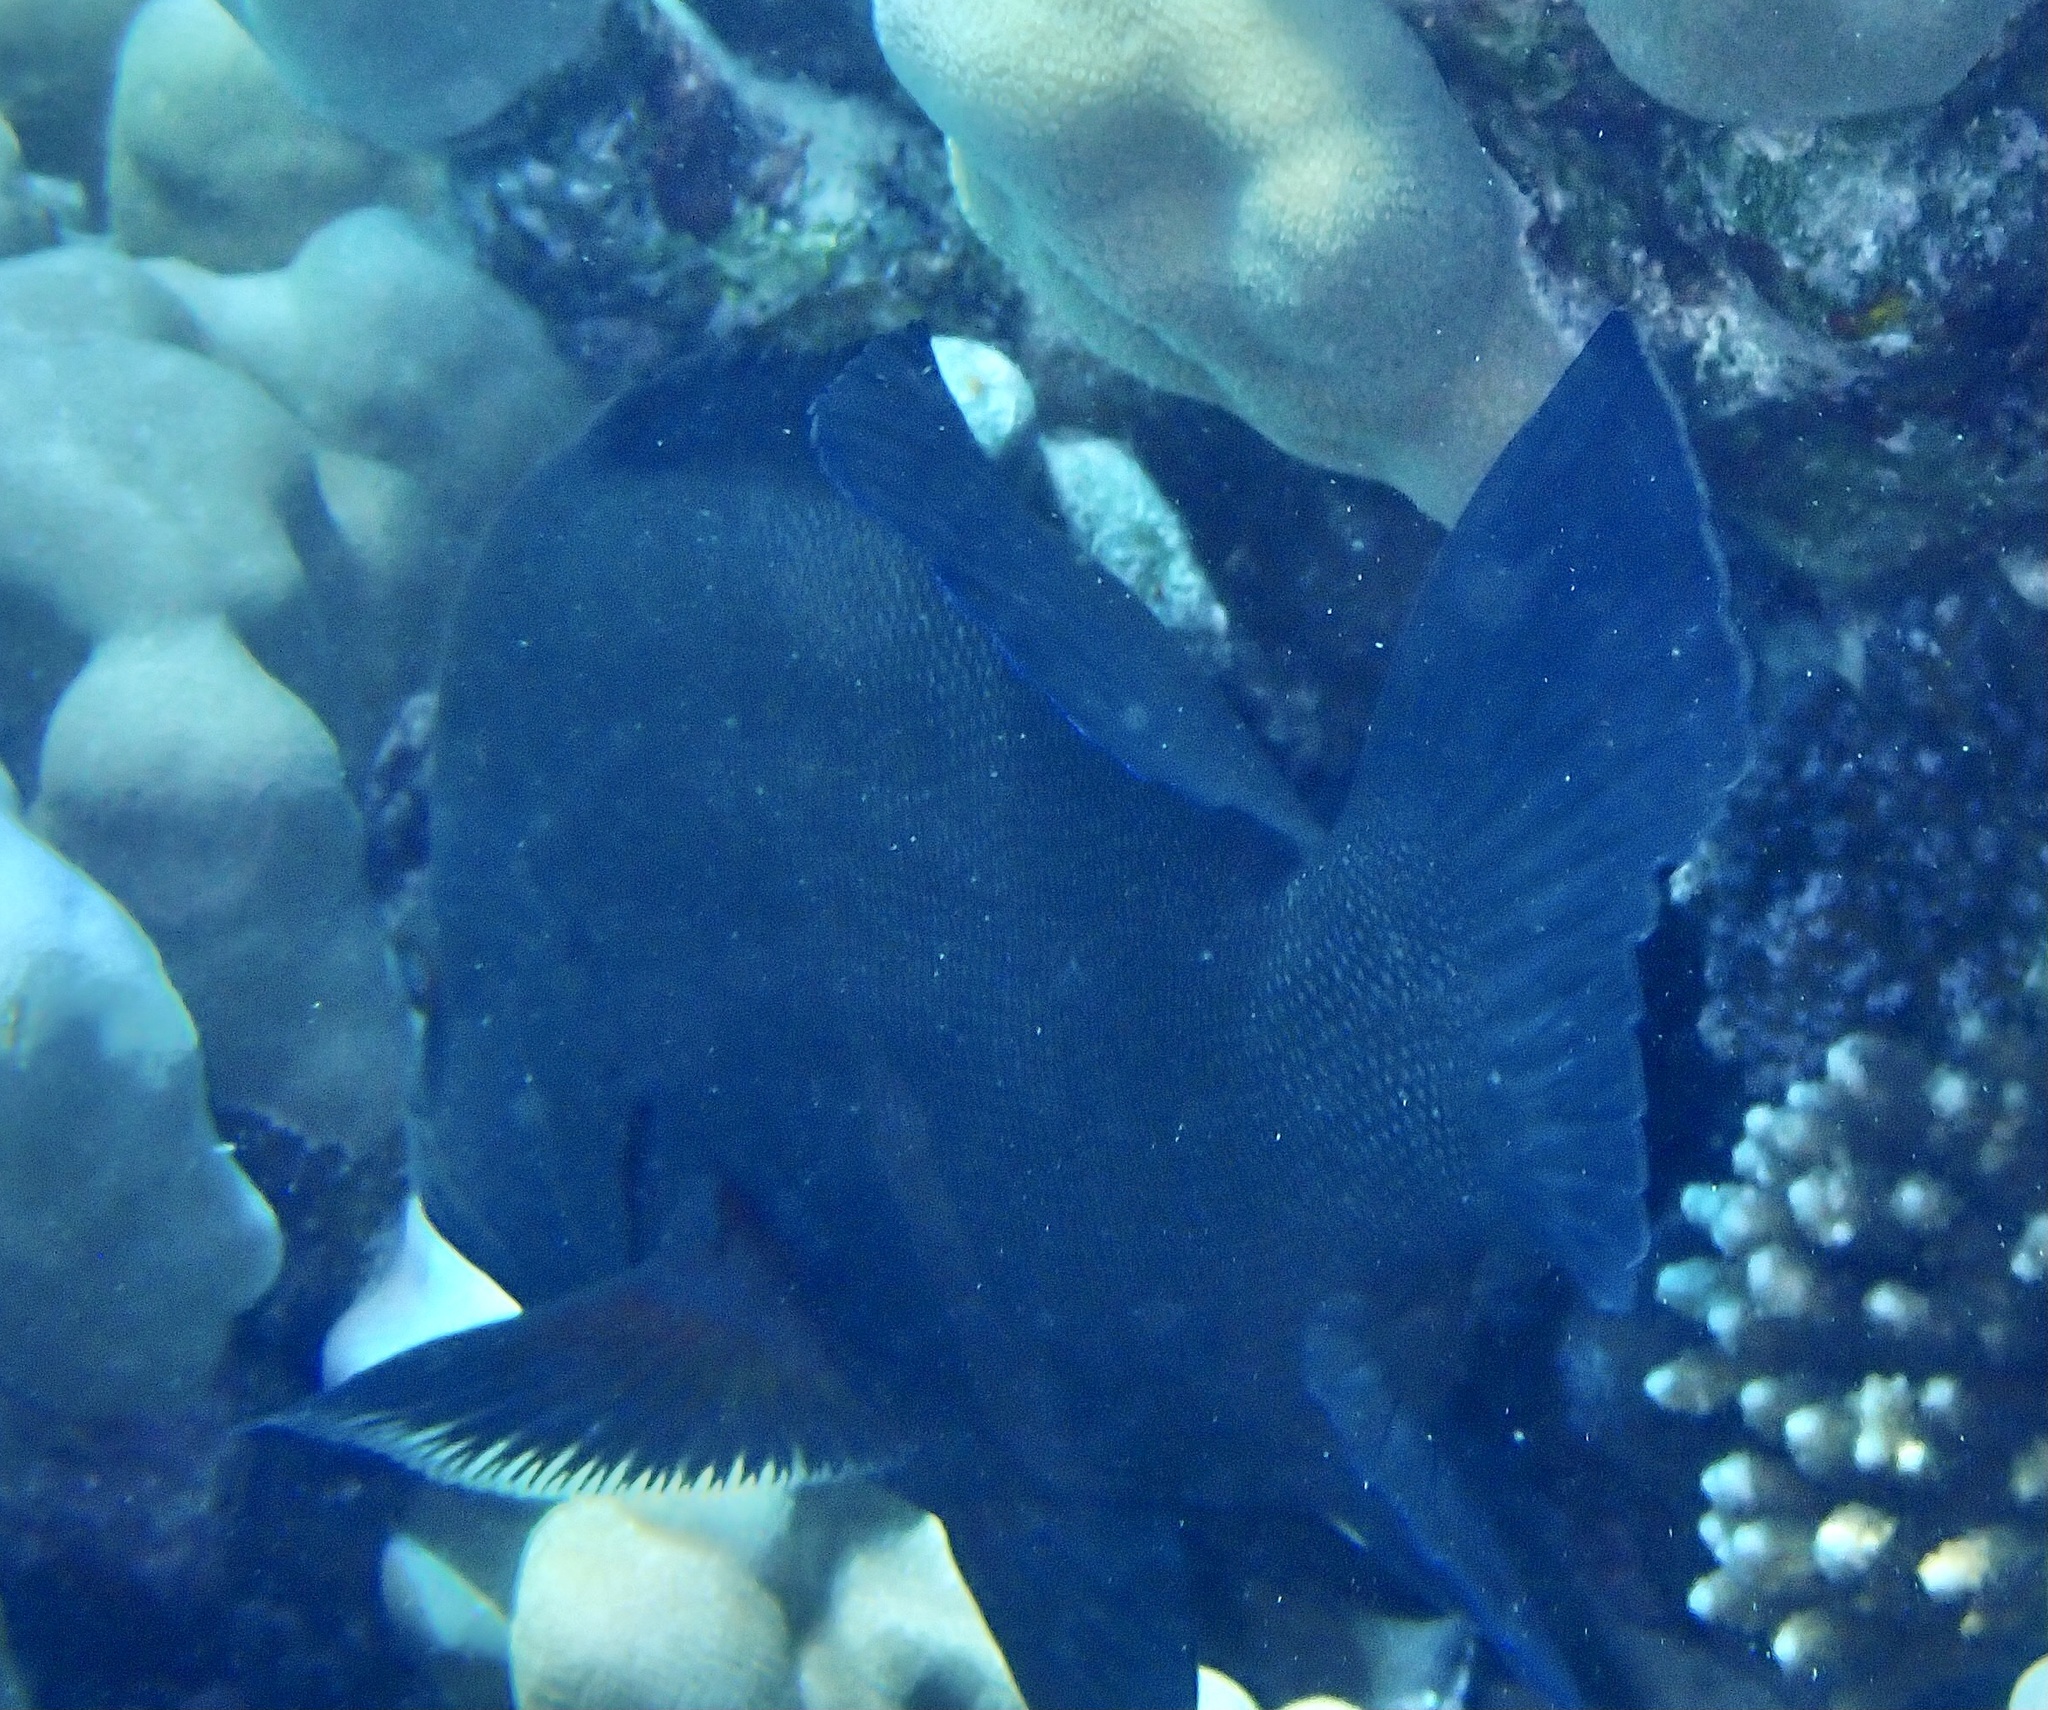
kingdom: Animalia
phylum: Chordata
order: Perciformes
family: Serranidae
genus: Aethaloperca
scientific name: Aethaloperca rogaa
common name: Redmouth grouper
